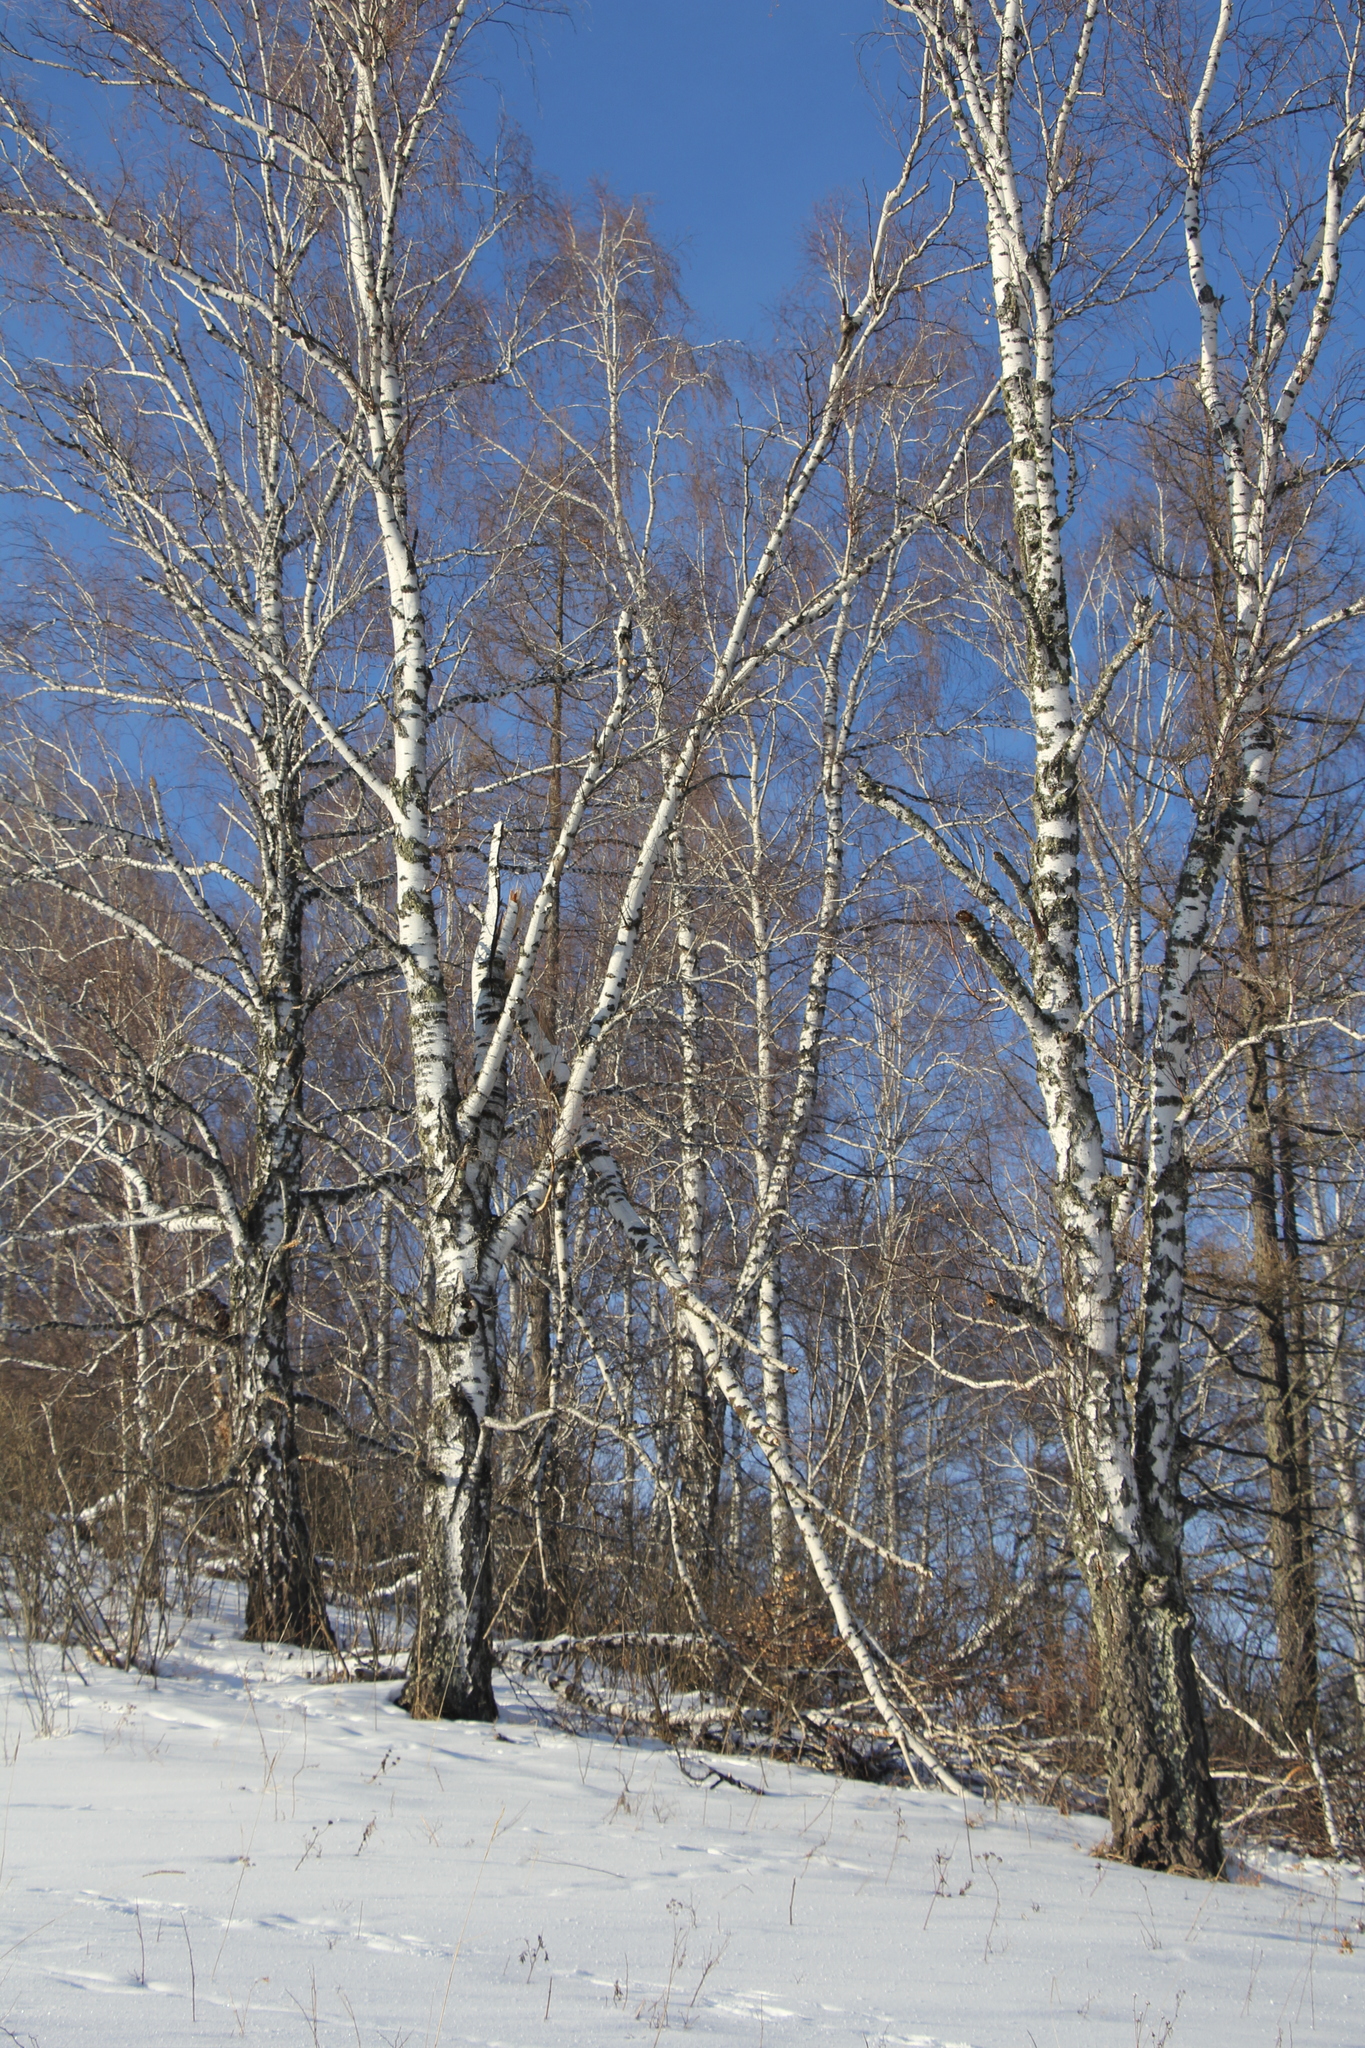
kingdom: Plantae
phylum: Tracheophyta
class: Magnoliopsida
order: Fagales
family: Betulaceae
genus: Betula
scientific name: Betula pendula
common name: Silver birch
